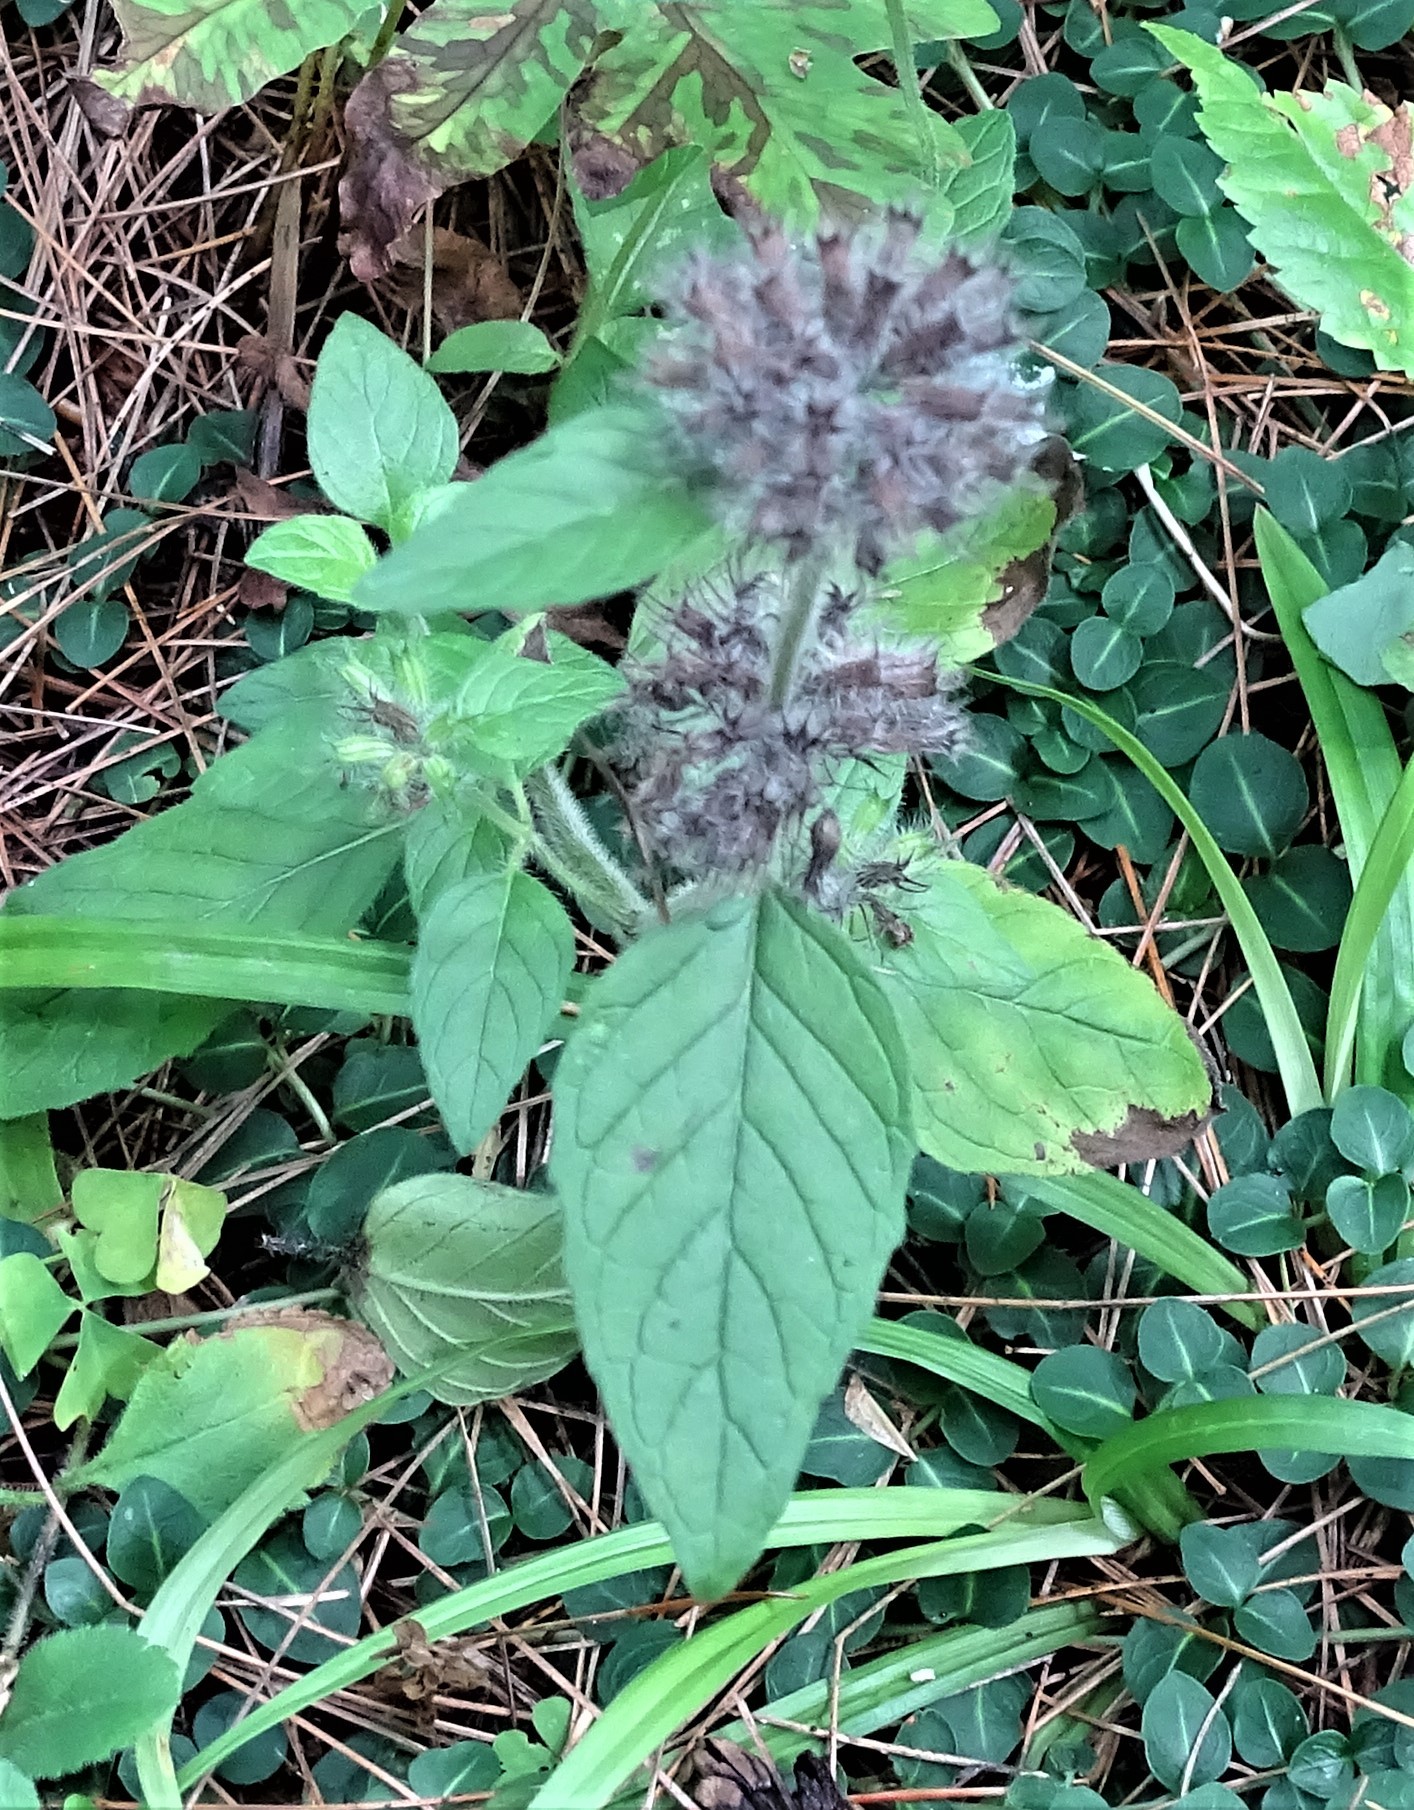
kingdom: Plantae
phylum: Tracheophyta
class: Magnoliopsida
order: Lamiales
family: Lamiaceae
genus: Clinopodium
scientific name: Clinopodium vulgare
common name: Wild basil
